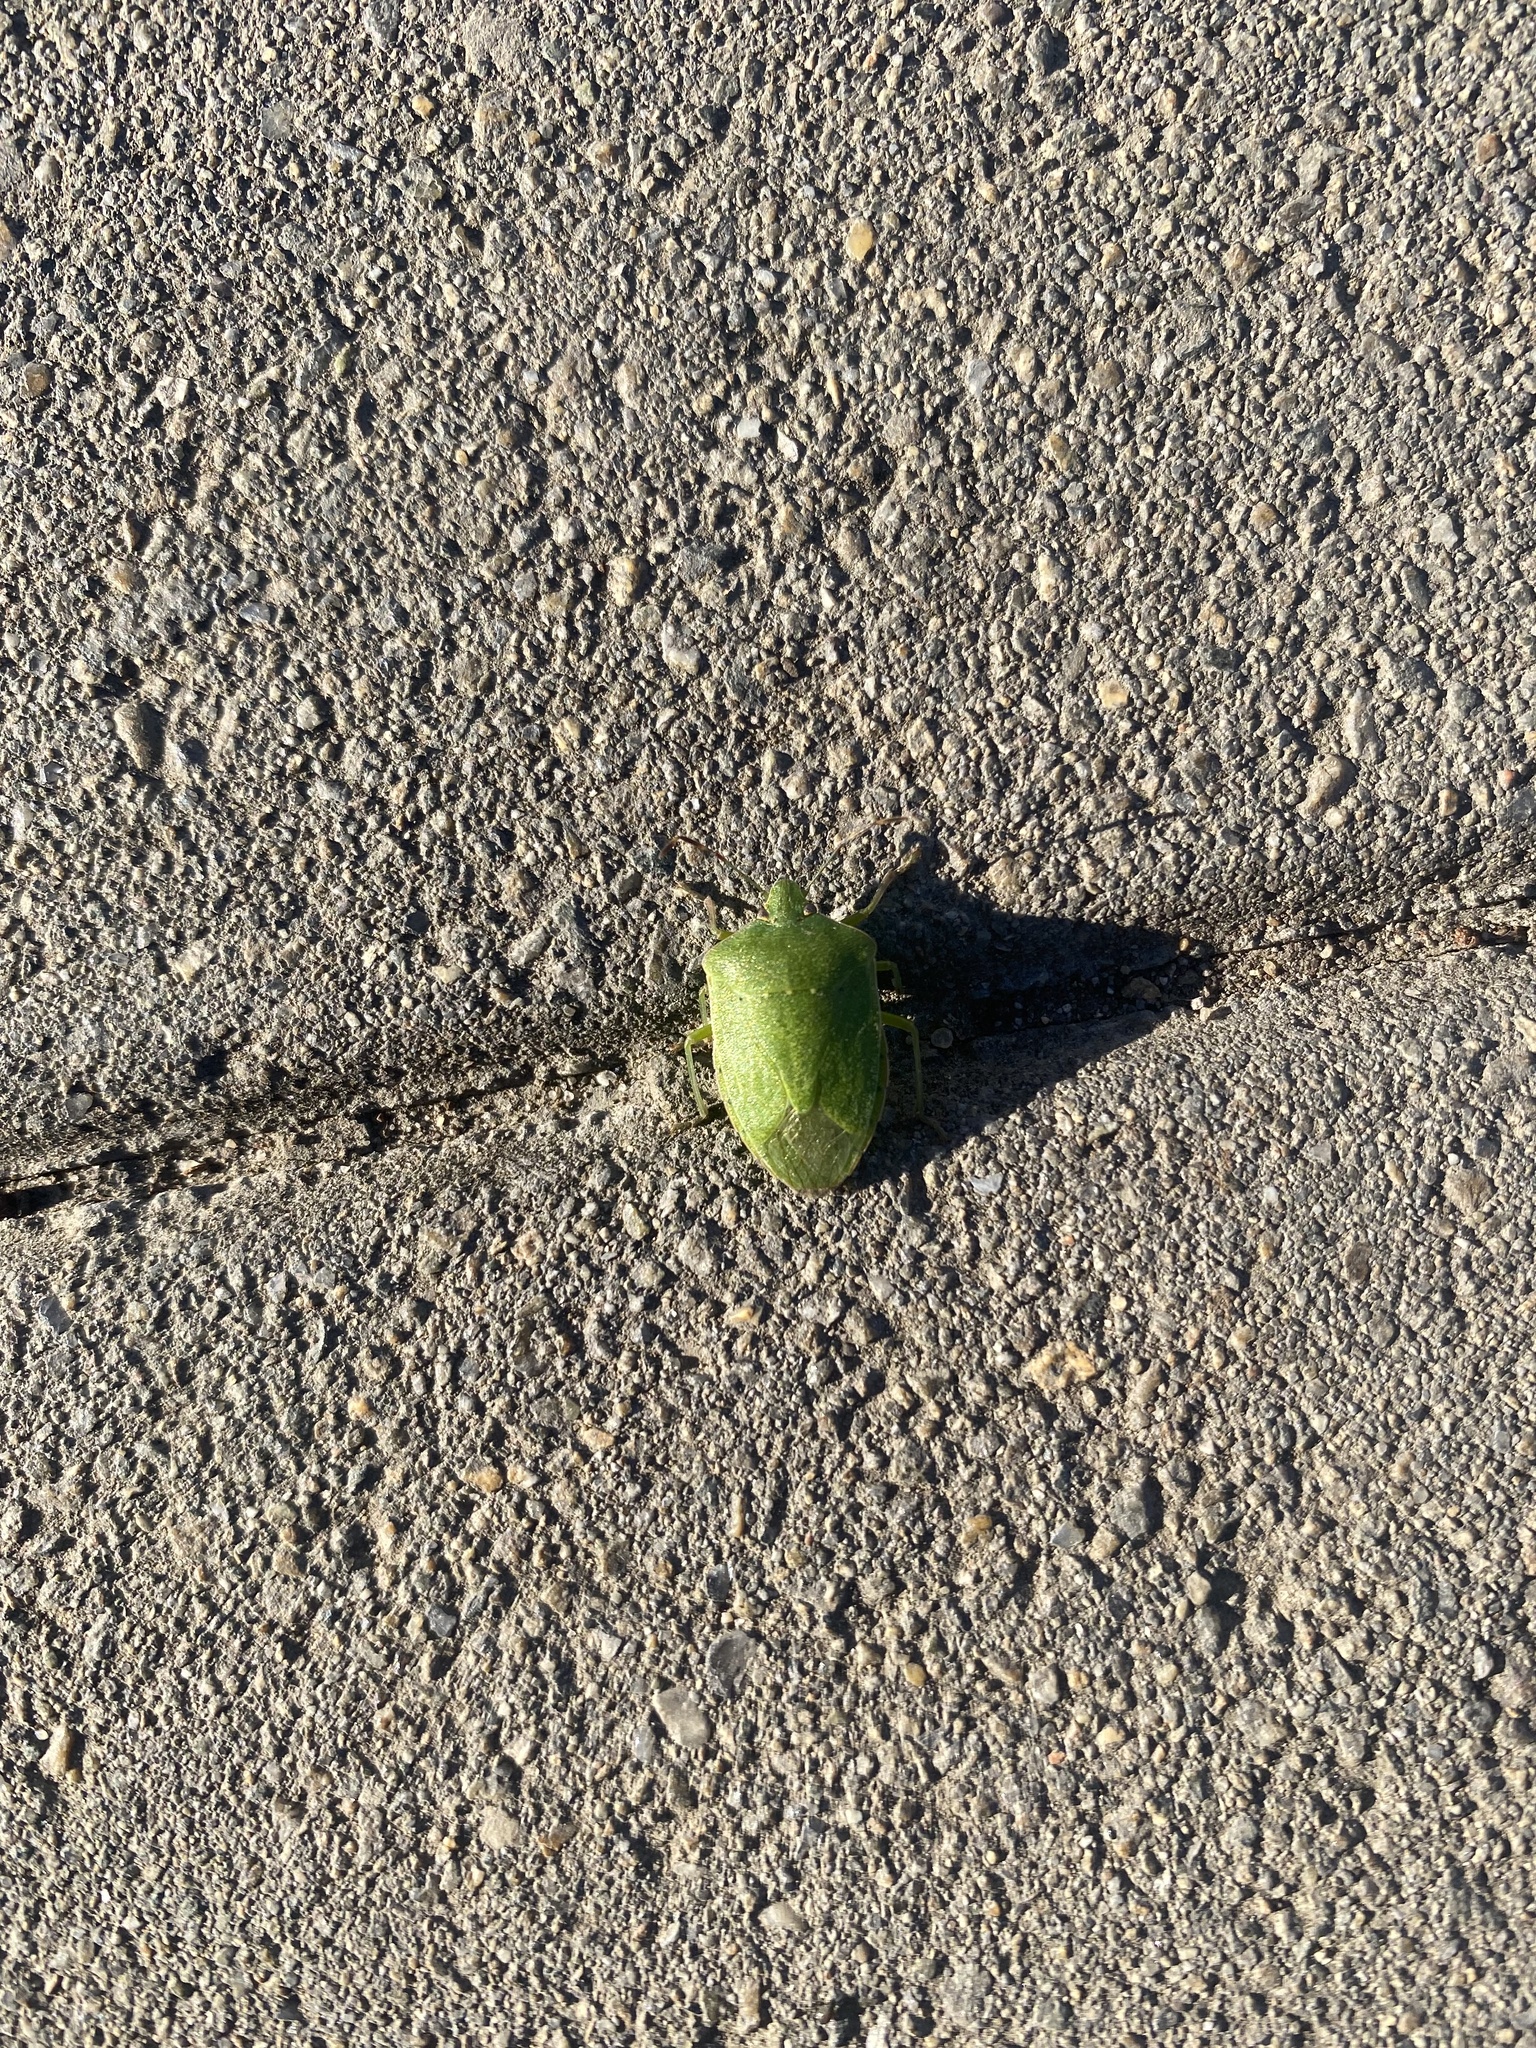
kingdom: Animalia
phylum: Arthropoda
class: Insecta
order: Hemiptera
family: Pentatomidae
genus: Nezara
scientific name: Nezara viridula
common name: Southern green stink bug
